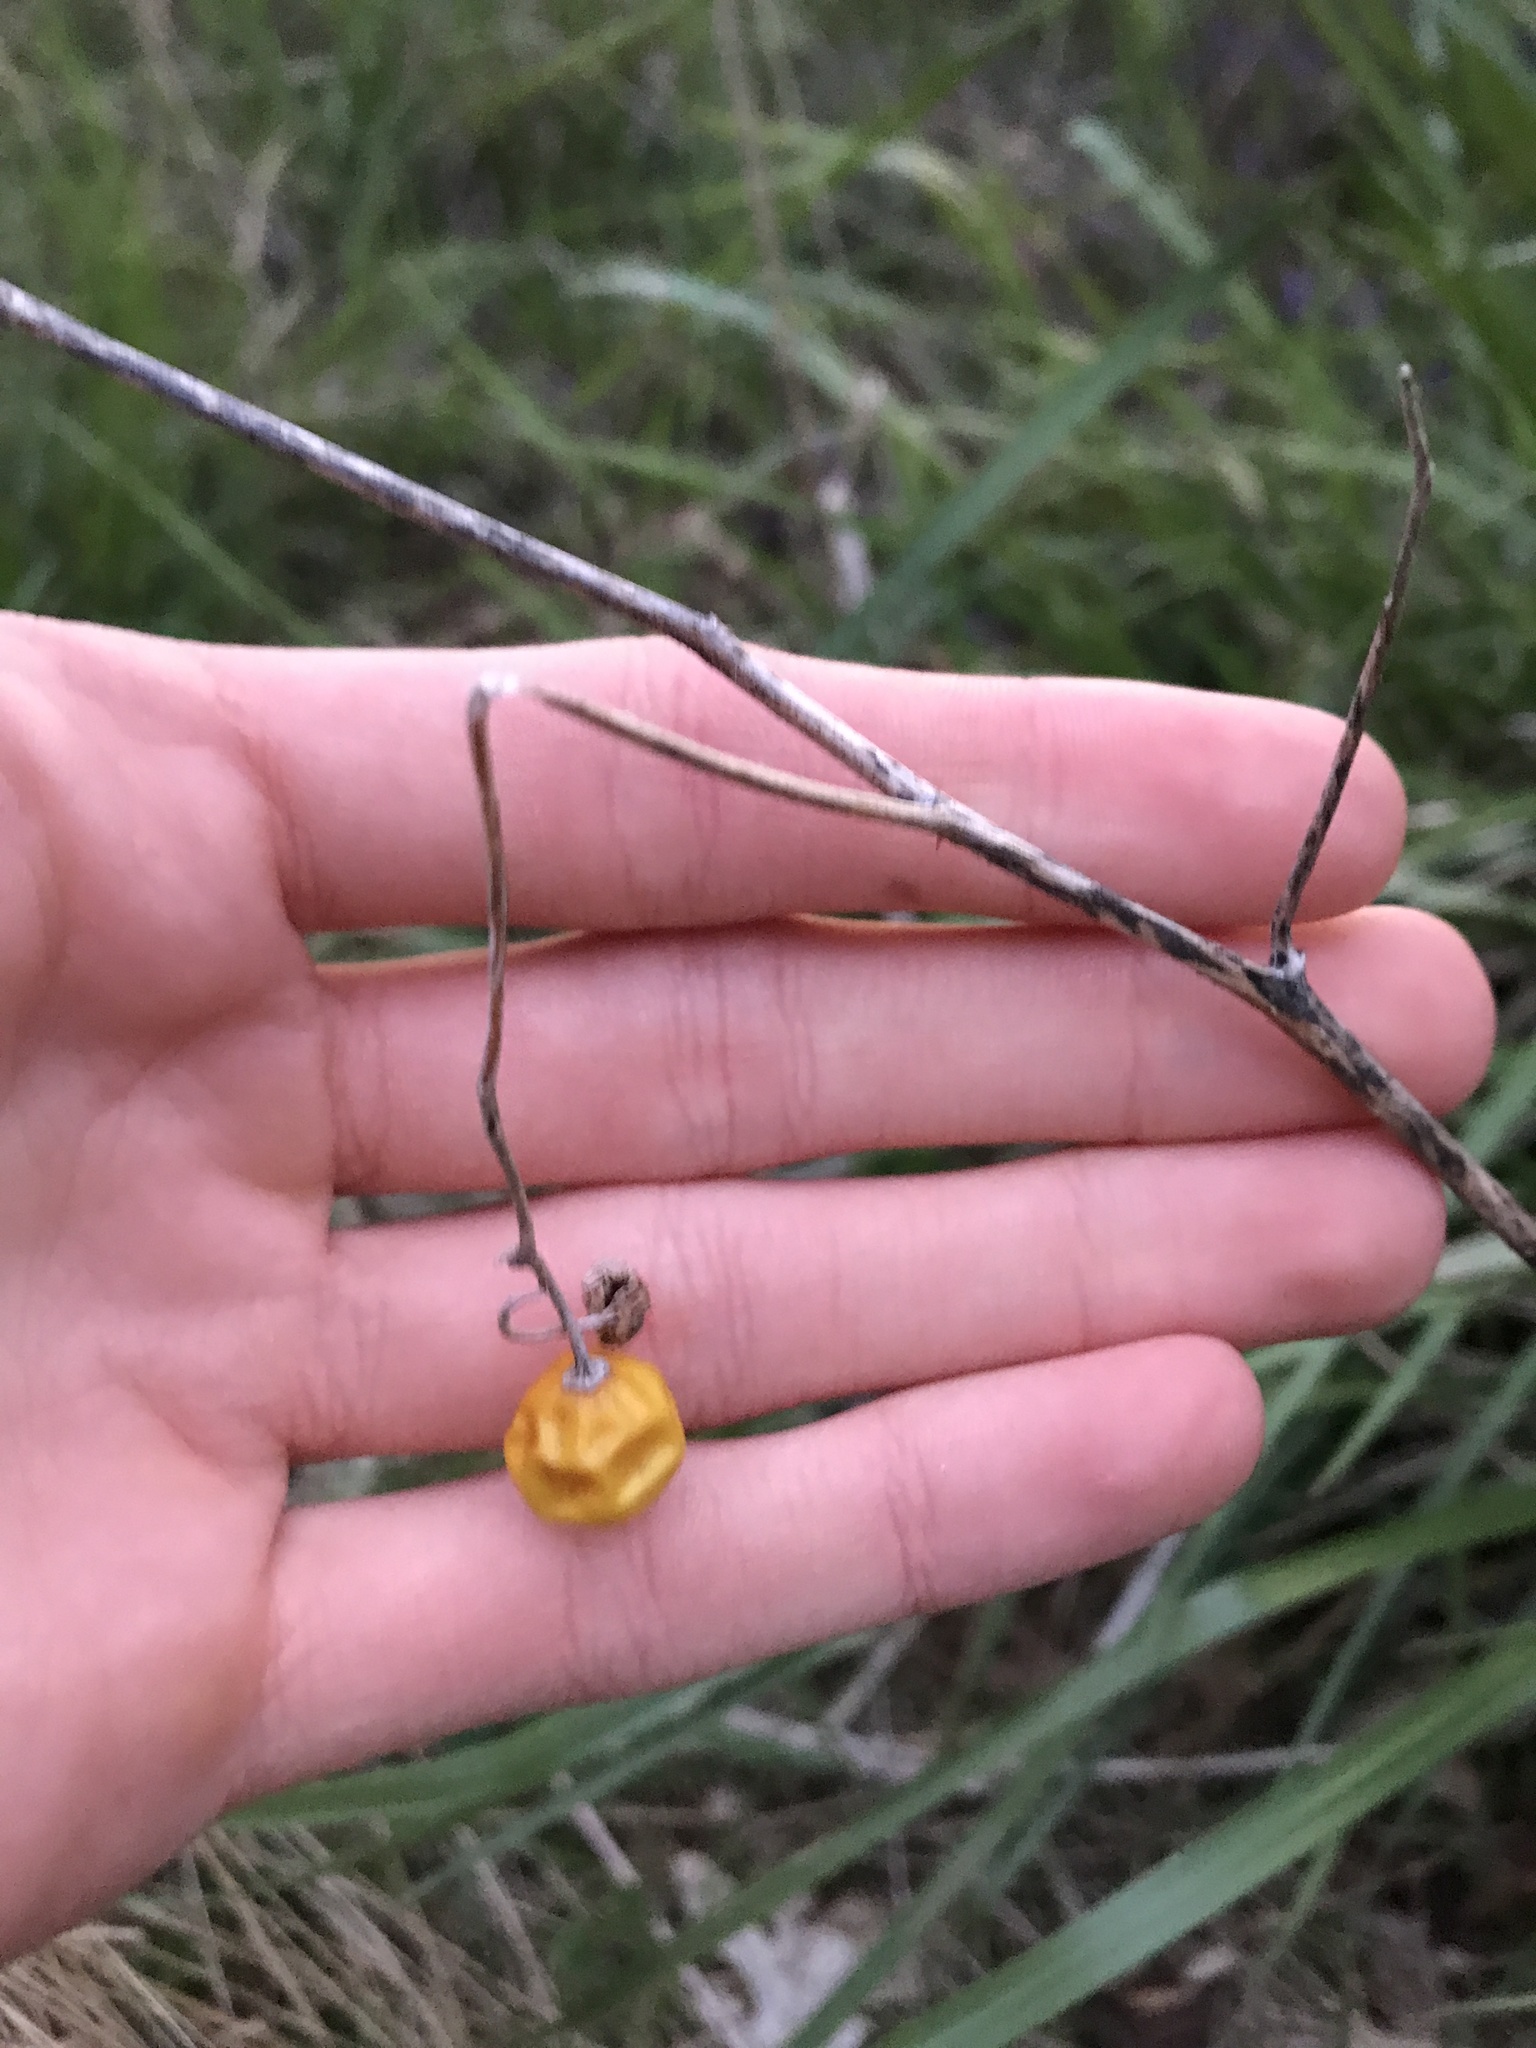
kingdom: Plantae
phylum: Tracheophyta
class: Magnoliopsida
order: Solanales
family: Solanaceae
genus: Solanum
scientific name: Solanum carolinense
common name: Horse-nettle
